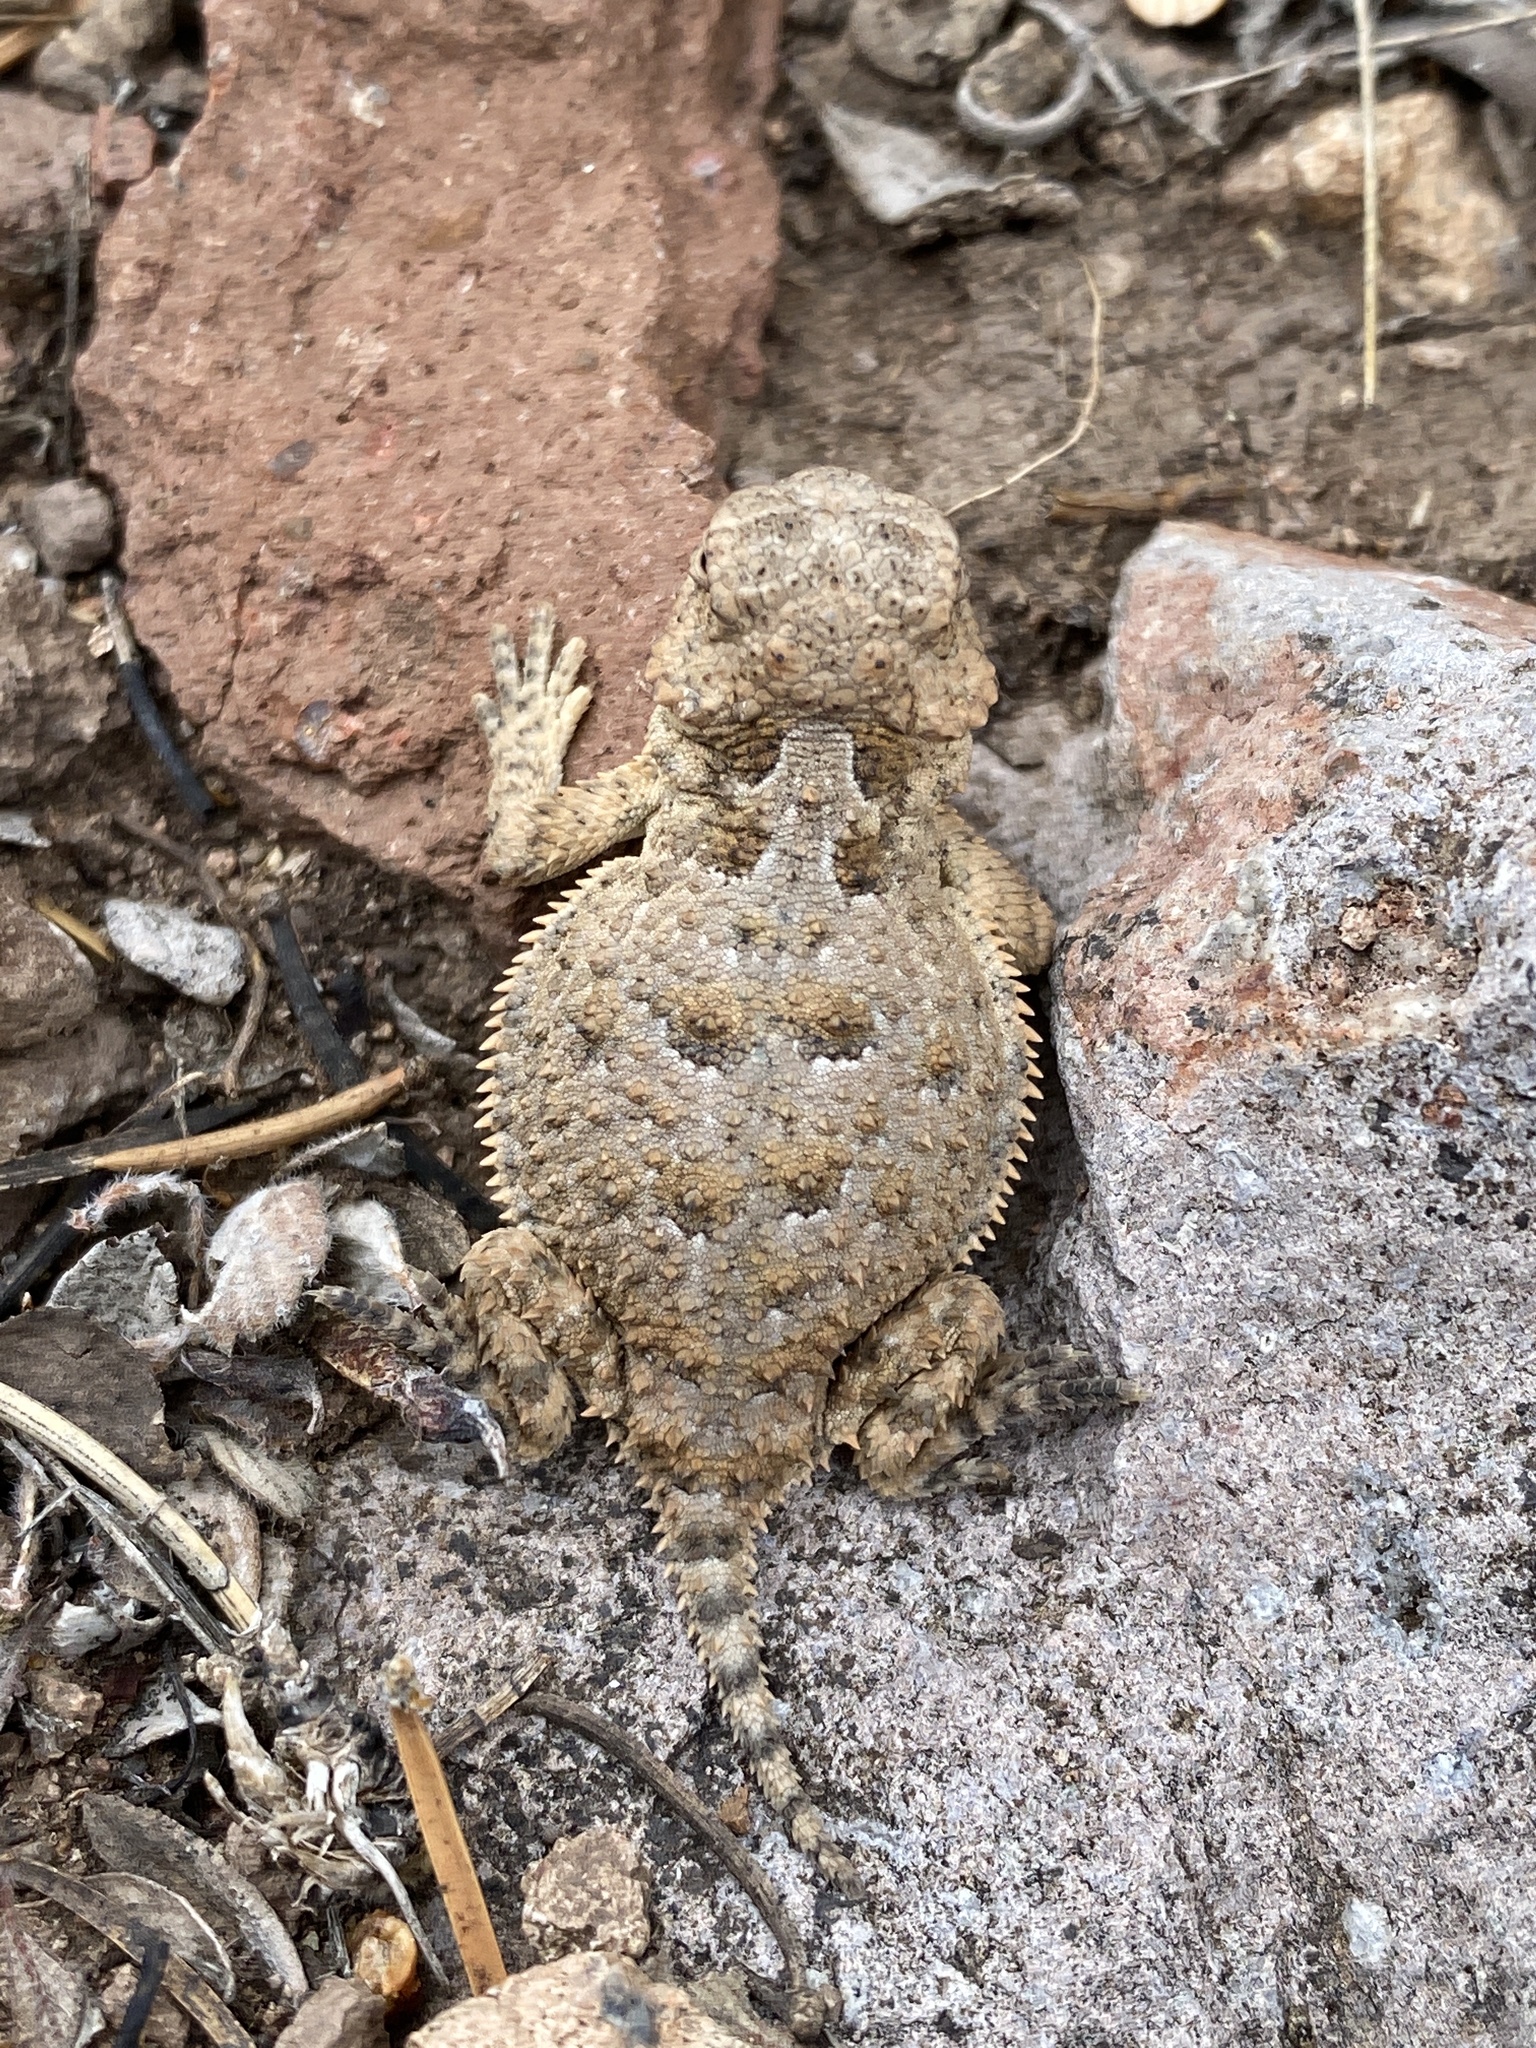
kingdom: Animalia
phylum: Chordata
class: Squamata
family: Phrynosomatidae
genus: Phrynosoma
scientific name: Phrynosoma hernandesi
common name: Greater short-horned lizard
